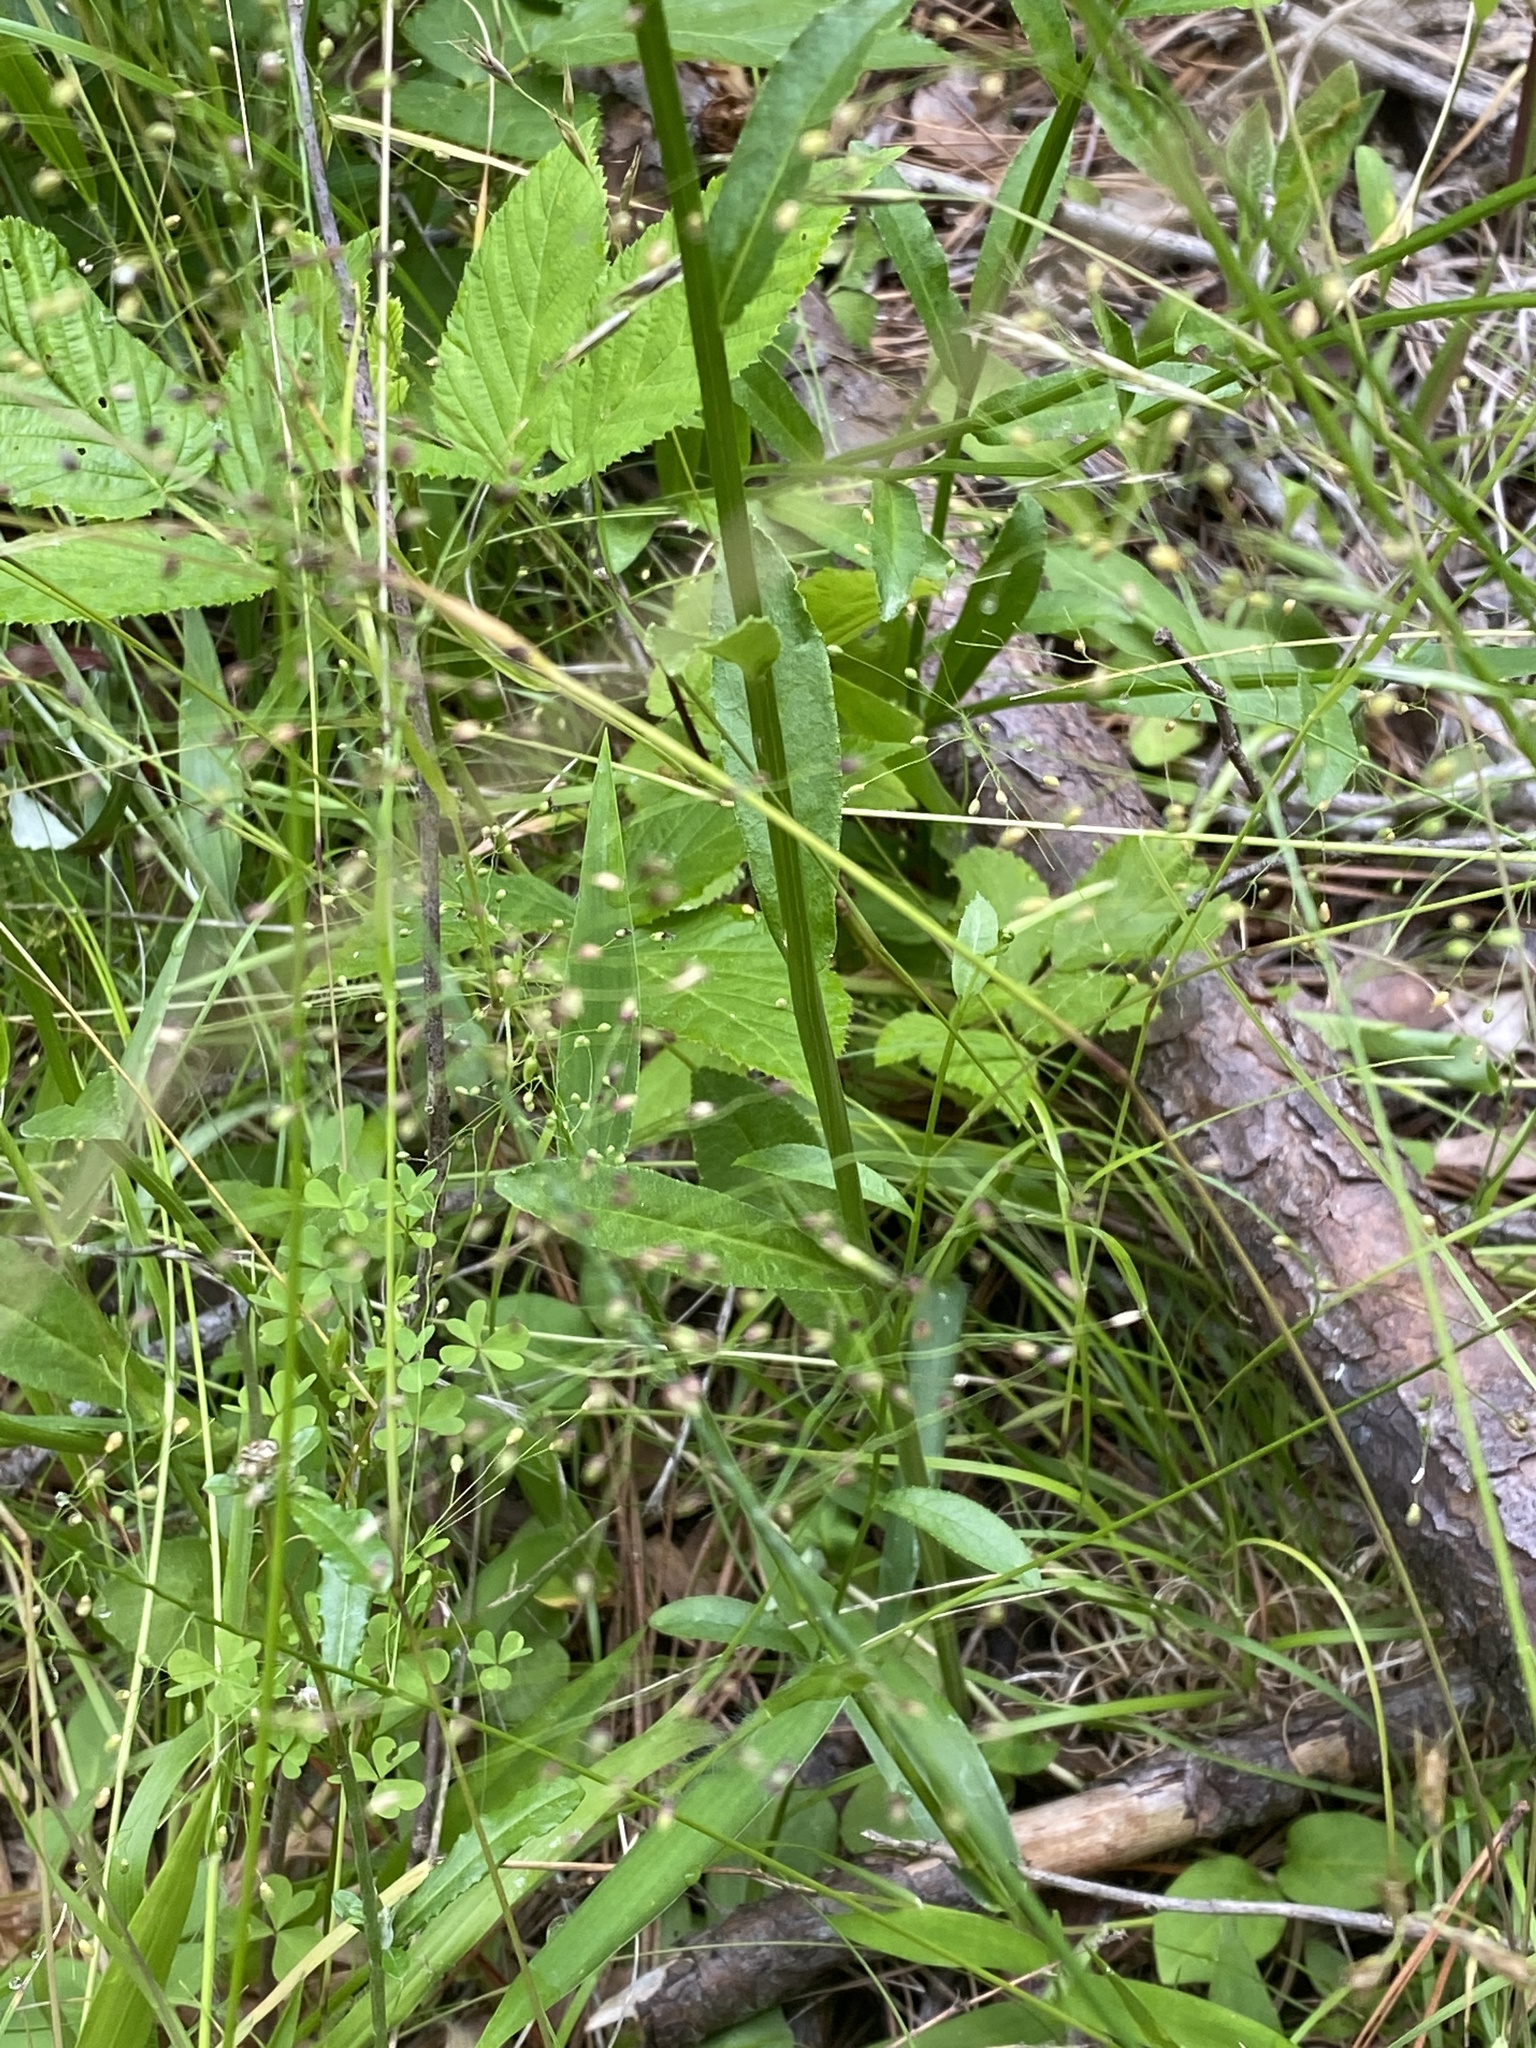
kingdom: Plantae
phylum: Tracheophyta
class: Magnoliopsida
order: Asterales
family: Campanulaceae
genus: Lobelia
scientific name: Lobelia spicata
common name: Pale-spike lobelia
